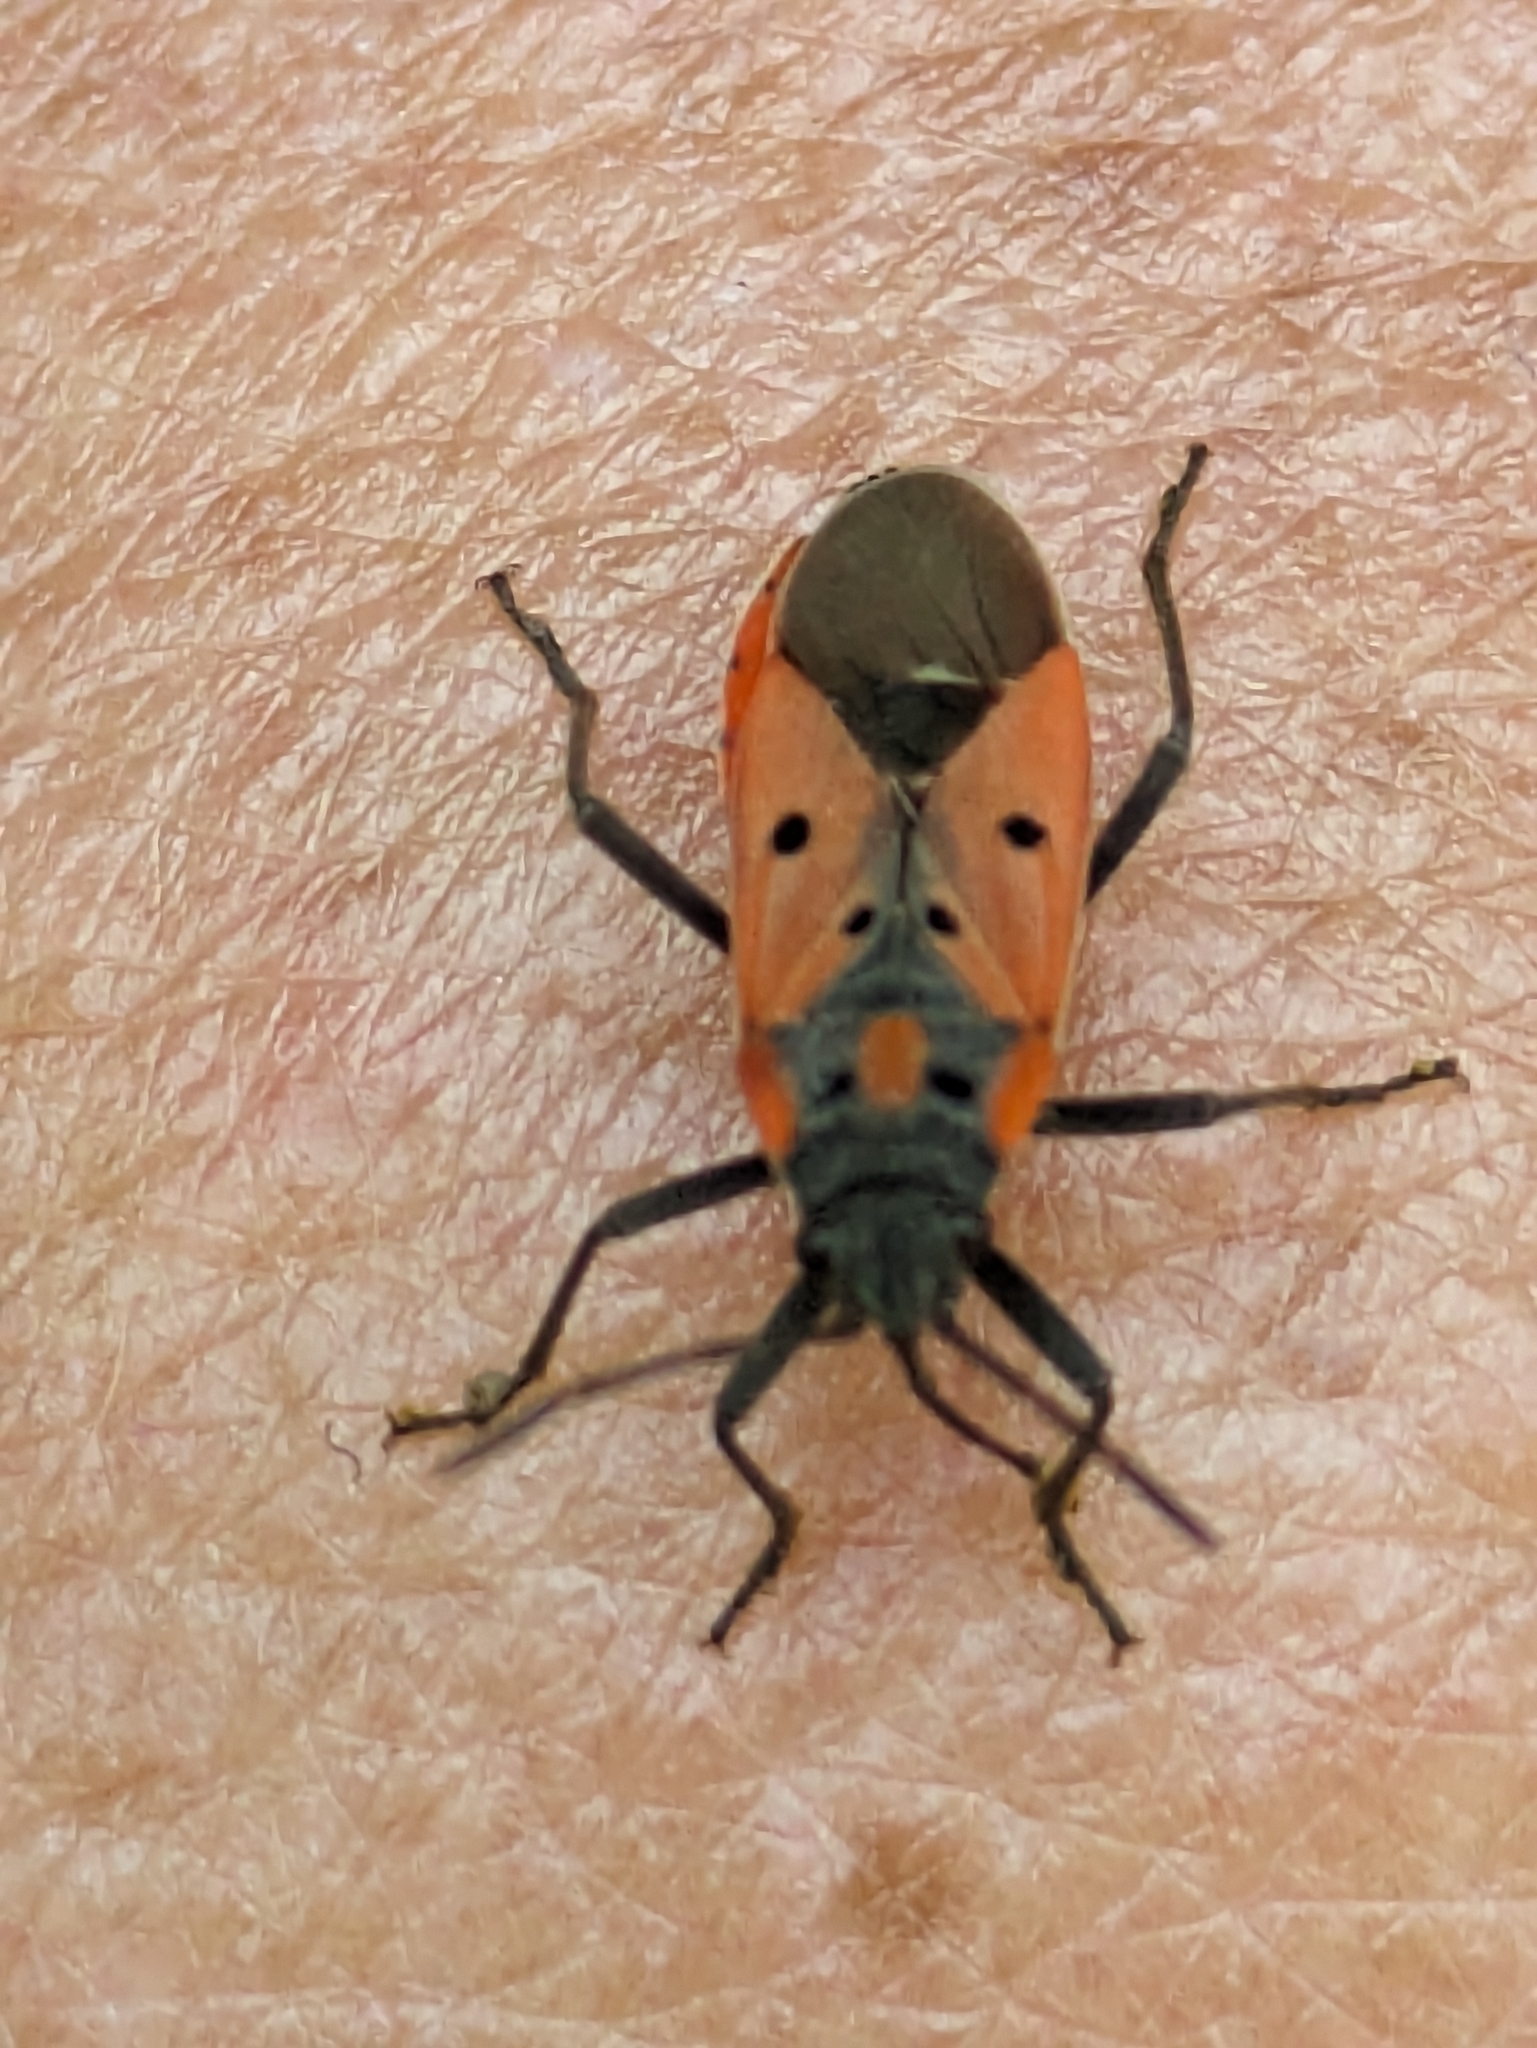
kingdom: Animalia
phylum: Arthropoda
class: Insecta
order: Hemiptera
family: Lygaeidae
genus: Lygaeus
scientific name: Lygaeus creticus
